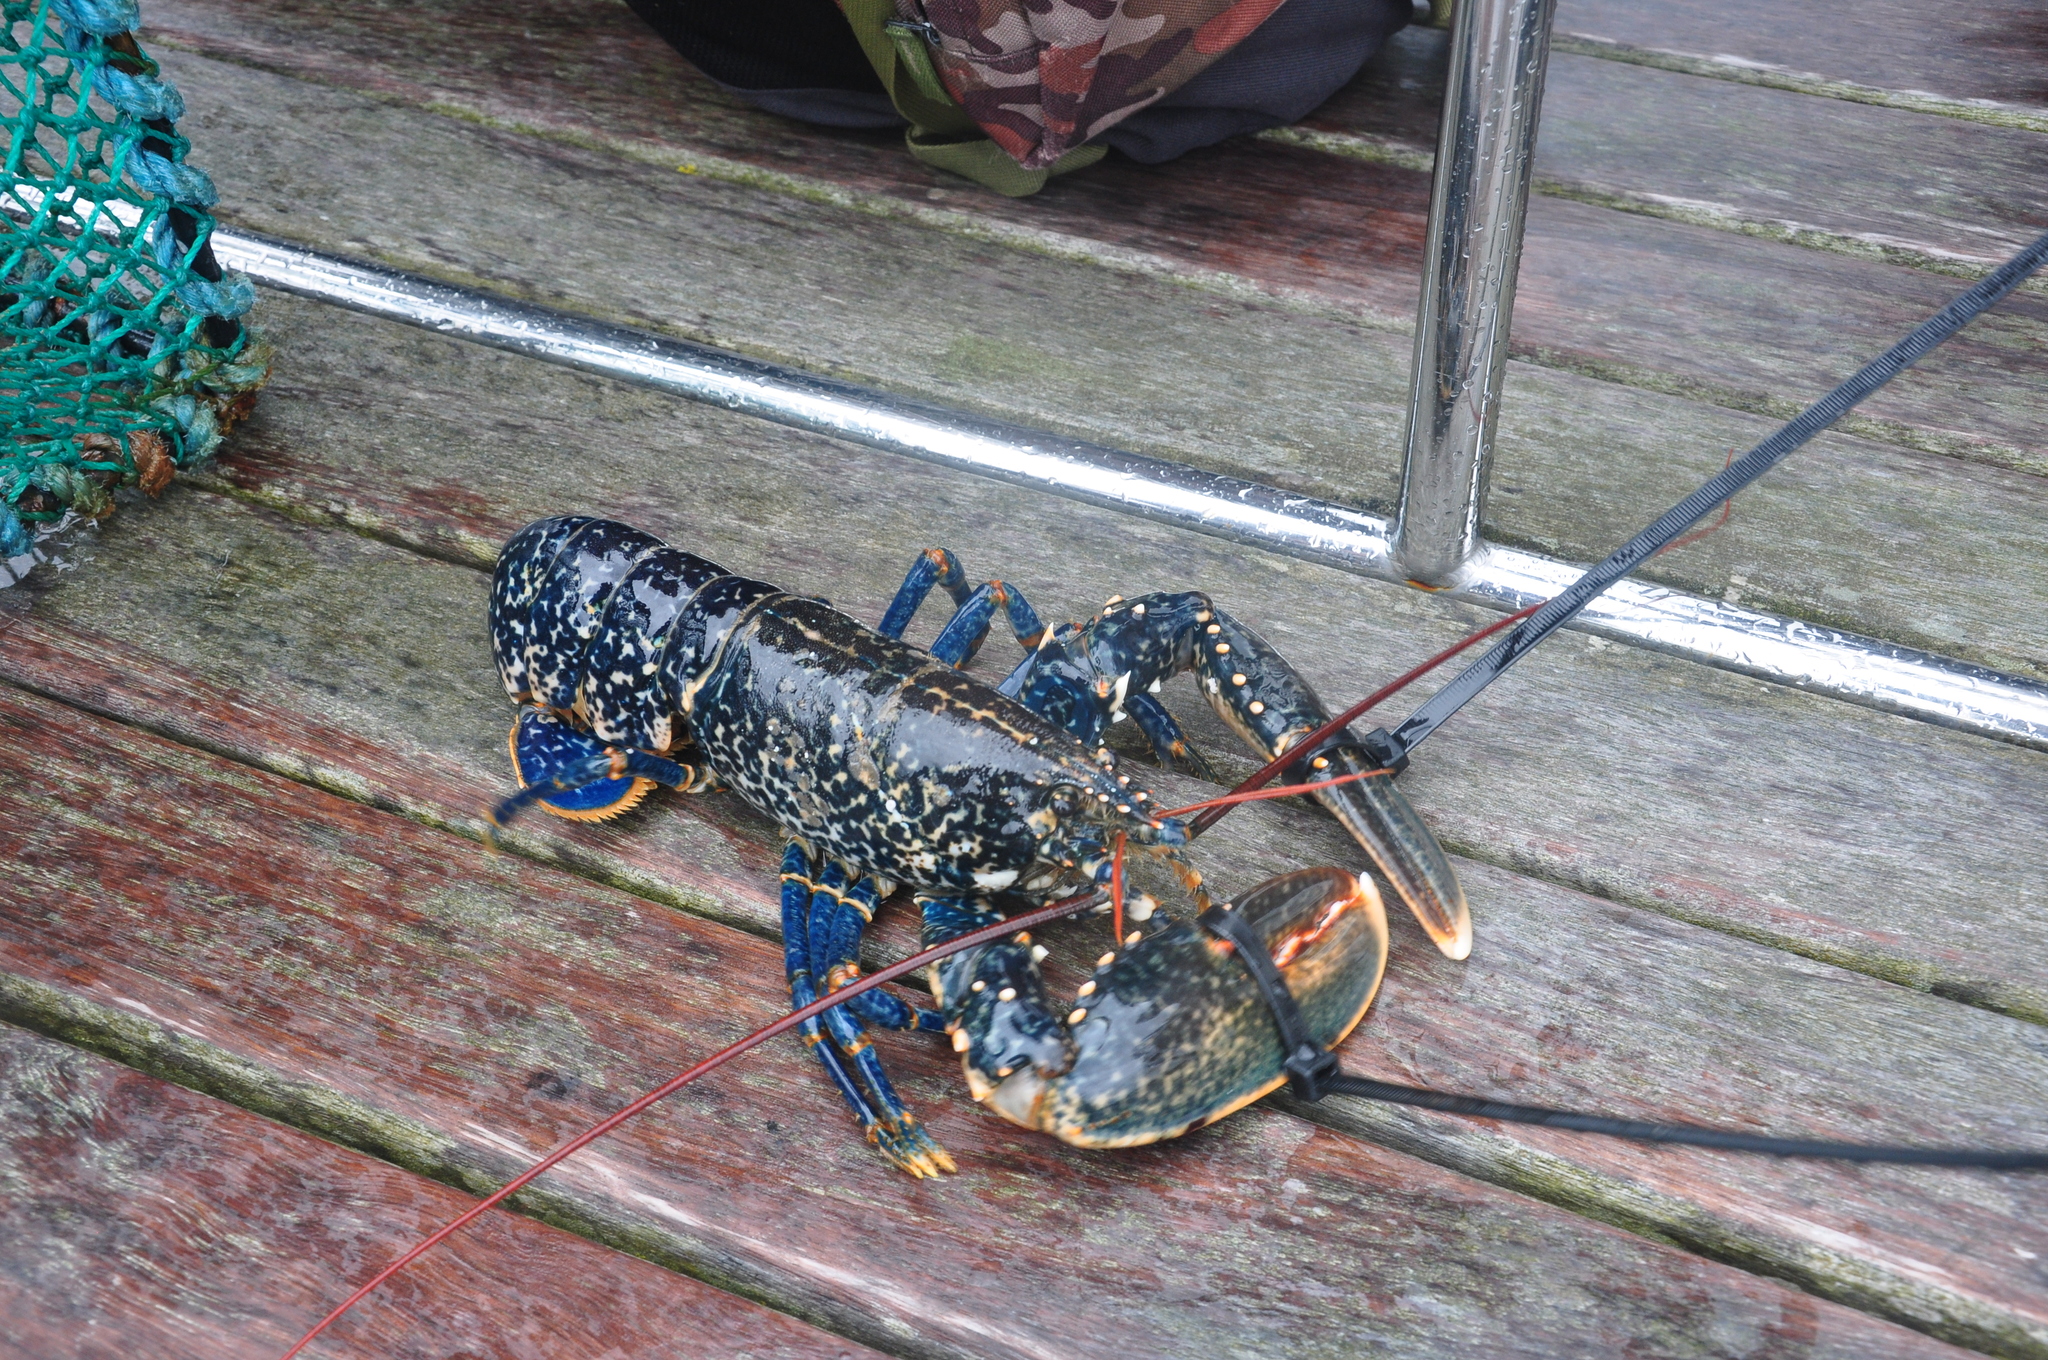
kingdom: Animalia
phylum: Arthropoda
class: Malacostraca
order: Decapoda
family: Nephropidae
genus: Homarus
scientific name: Homarus gammarus
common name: European lobster
